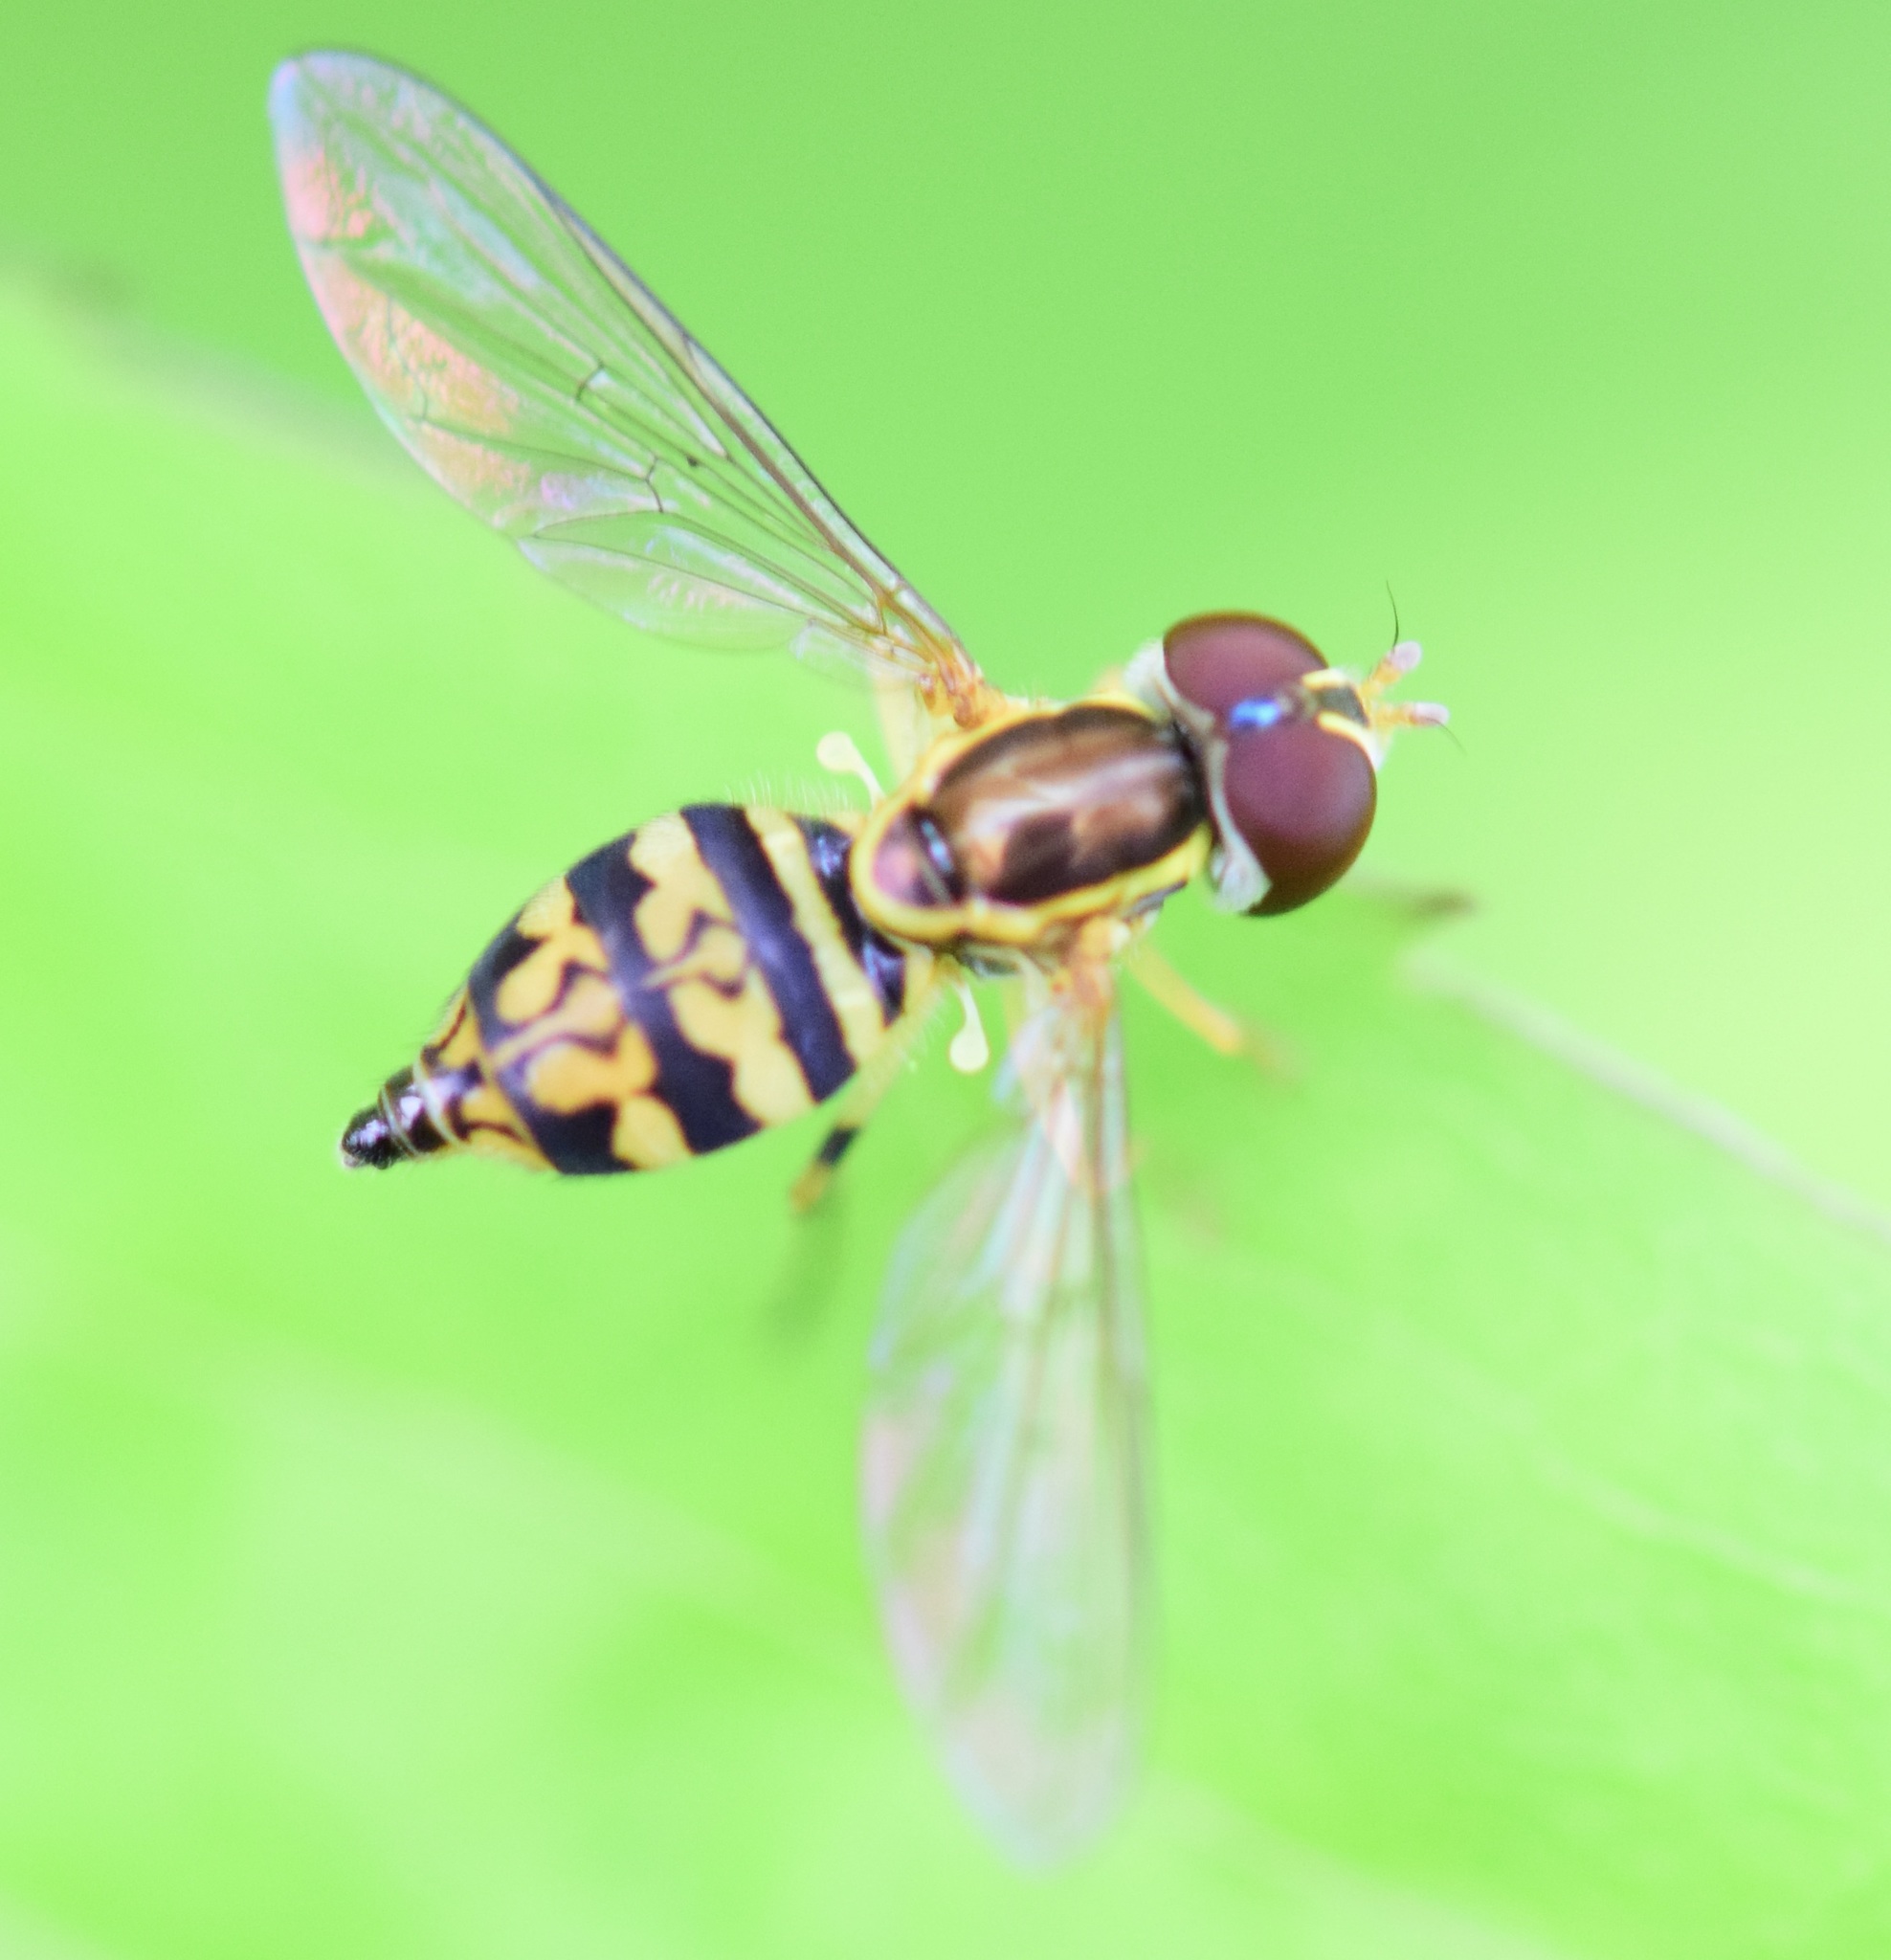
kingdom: Animalia
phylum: Arthropoda
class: Insecta
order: Diptera
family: Syrphidae
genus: Toxomerus
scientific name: Toxomerus geminatus
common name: Eastern calligrapher
